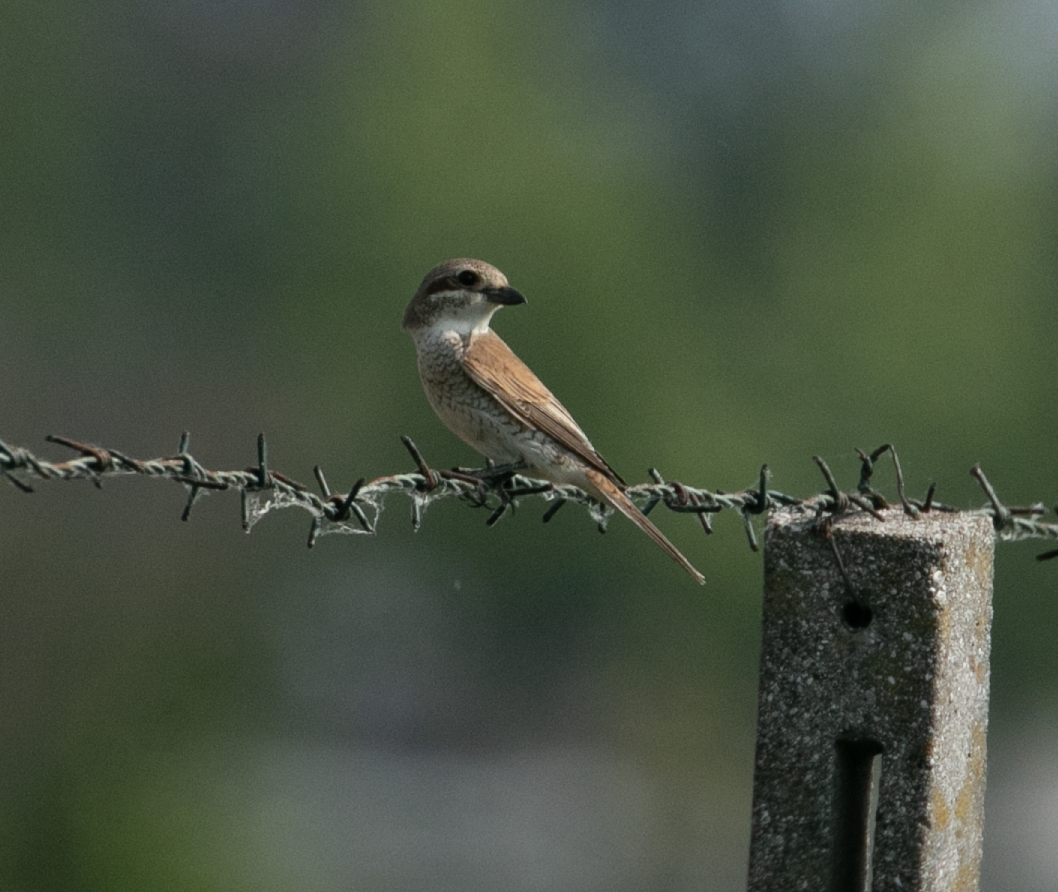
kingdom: Animalia
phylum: Chordata
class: Aves
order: Passeriformes
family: Laniidae
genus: Lanius
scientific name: Lanius collurio
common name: Red-backed shrike
